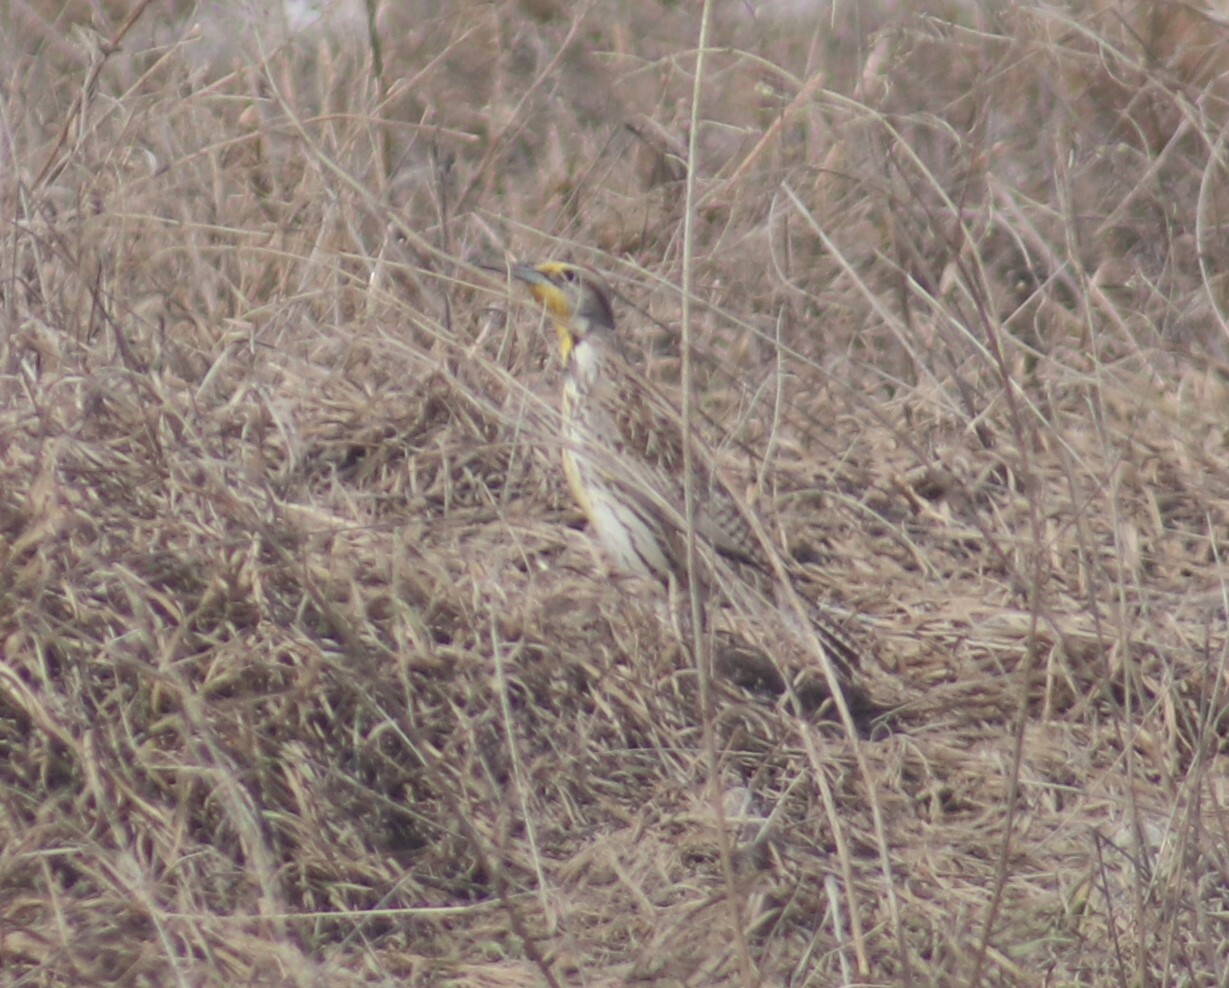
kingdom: Animalia
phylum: Chordata
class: Aves
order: Passeriformes
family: Icteridae
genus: Sturnella
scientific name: Sturnella neglecta
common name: Western meadowlark
